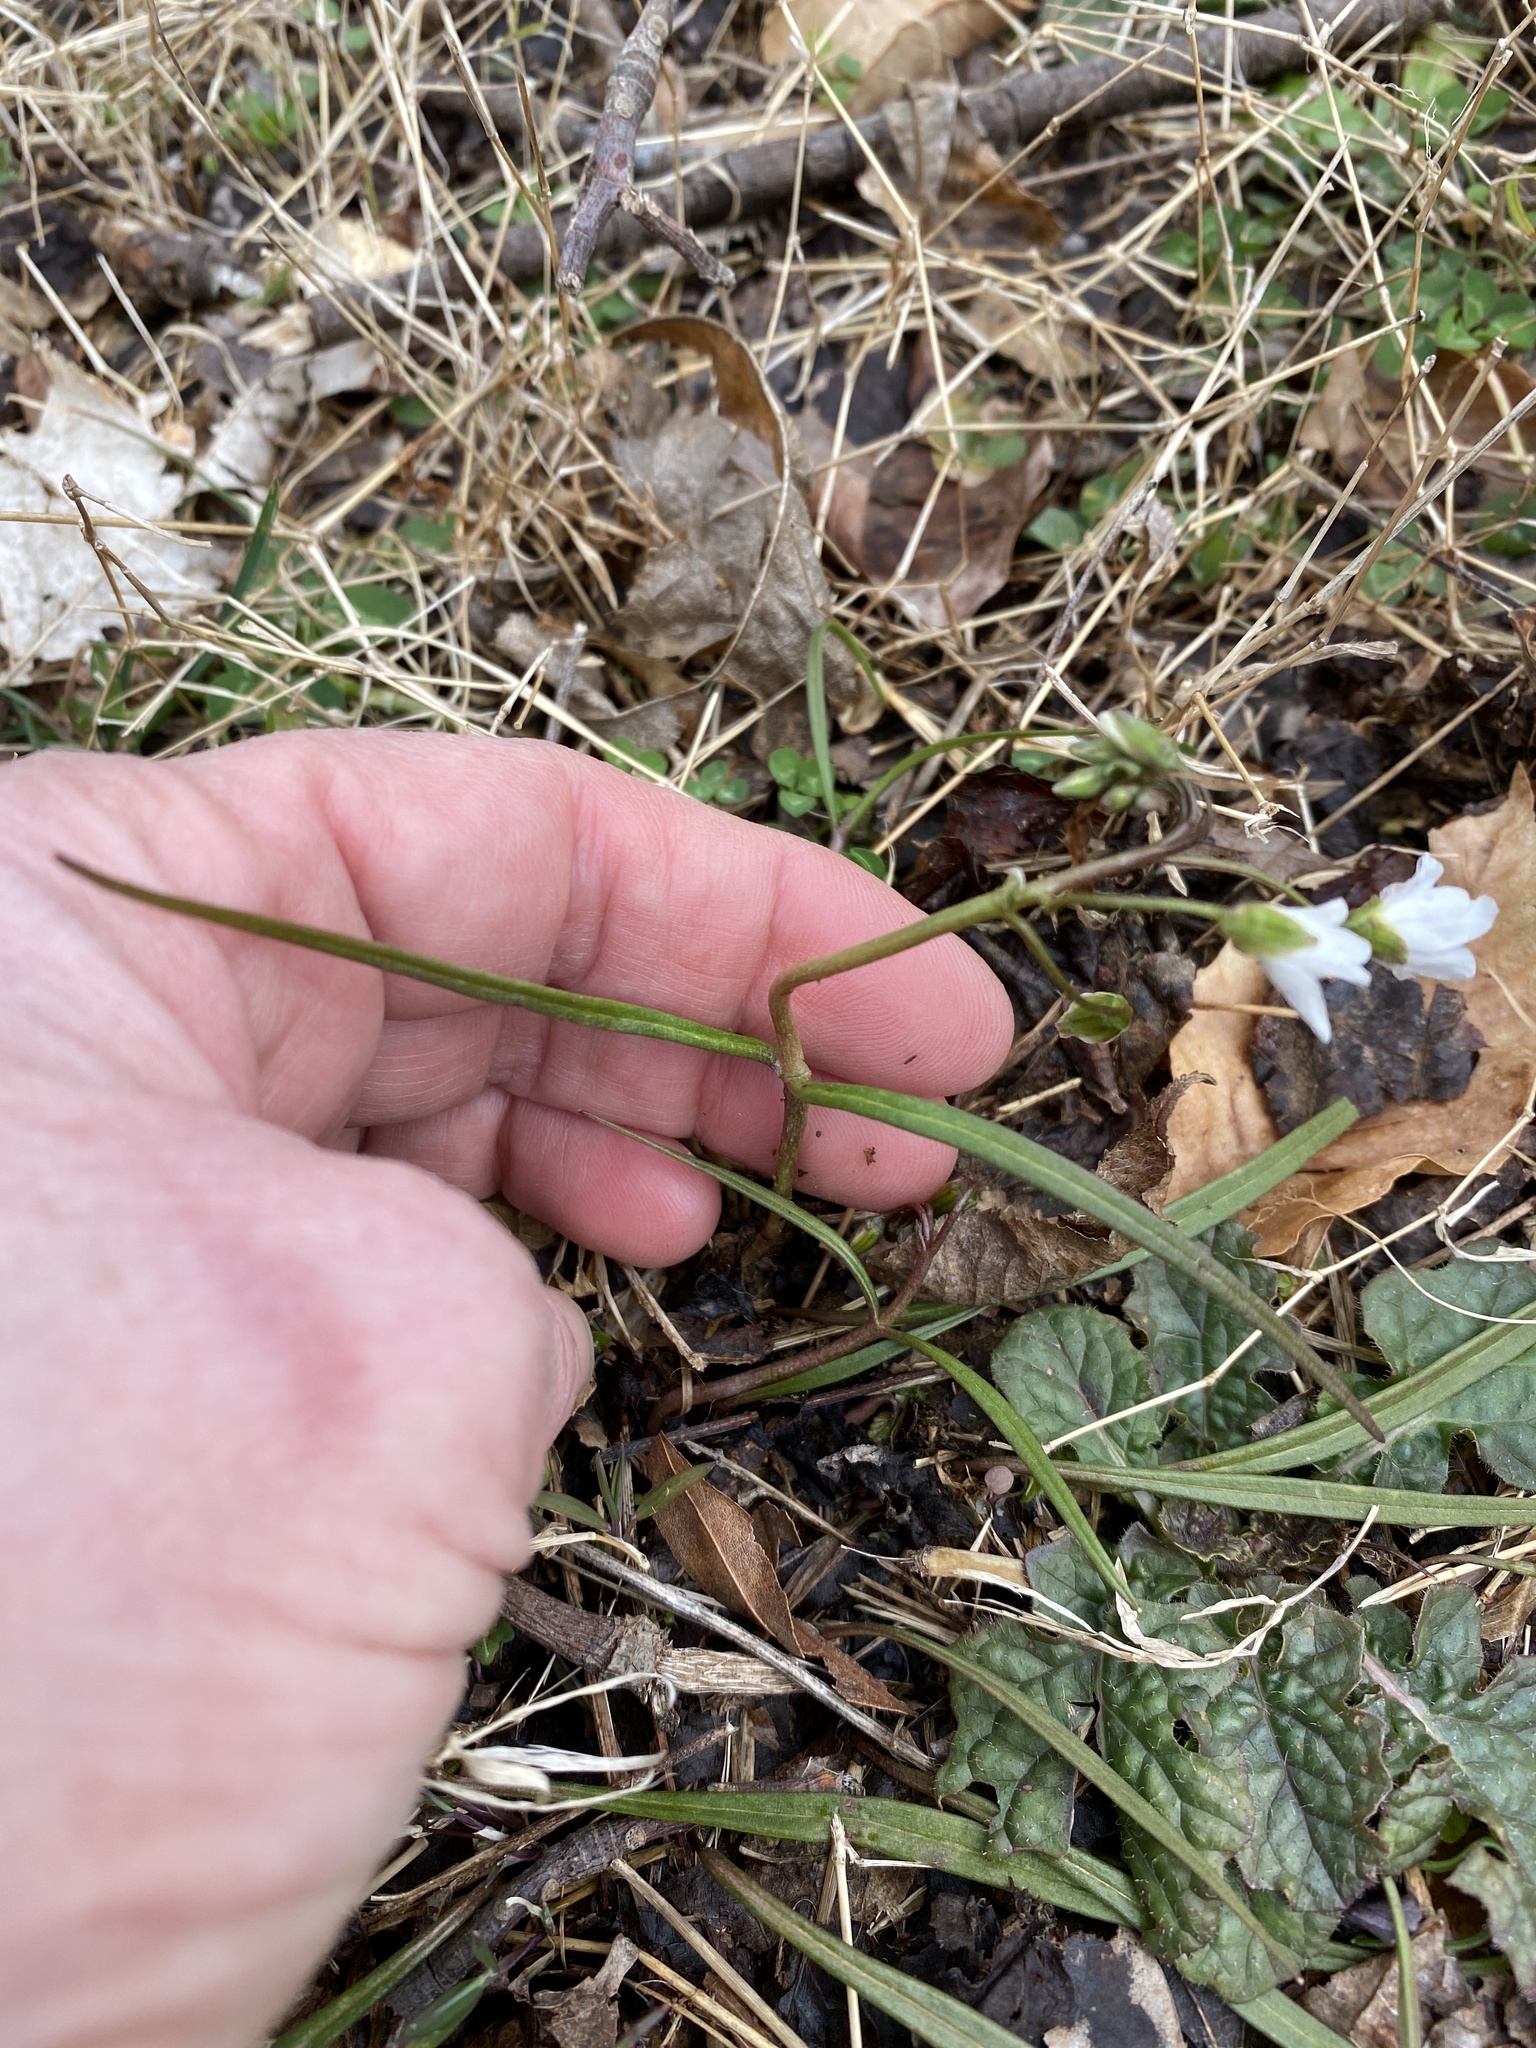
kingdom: Plantae
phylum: Tracheophyta
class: Magnoliopsida
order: Caryophyllales
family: Montiaceae
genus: Claytonia
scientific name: Claytonia virginica
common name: Virginia springbeauty
